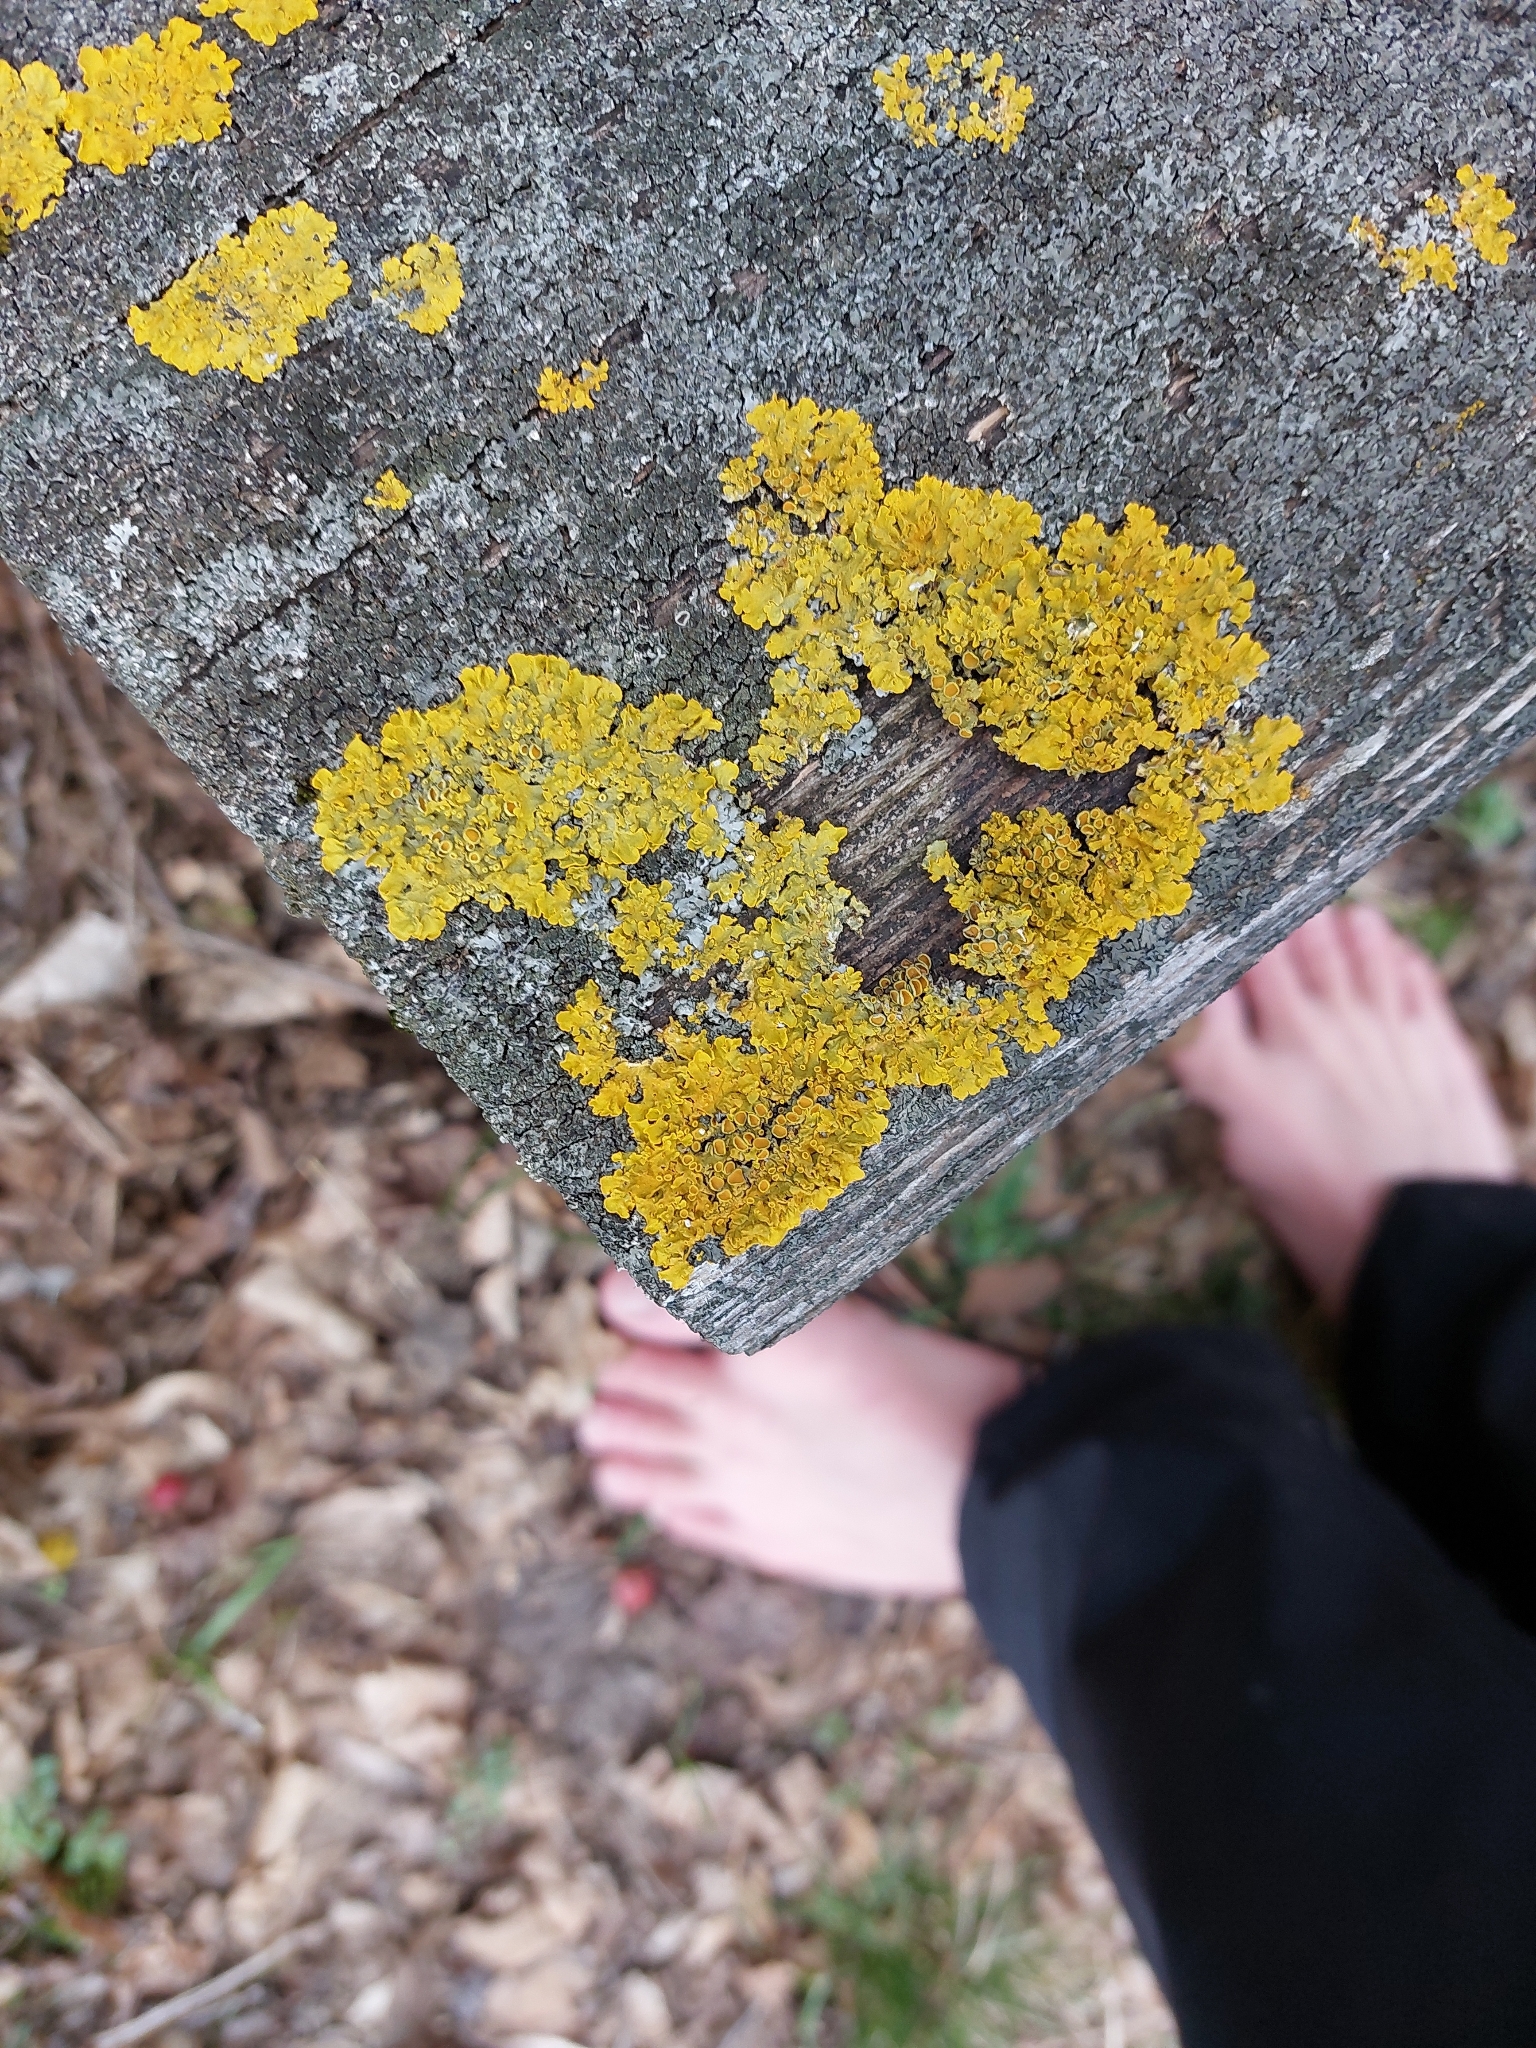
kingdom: Fungi
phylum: Ascomycota
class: Lecanoromycetes
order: Teloschistales
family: Teloschistaceae
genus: Xanthoria
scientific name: Xanthoria parietina
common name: Common orange lichen
